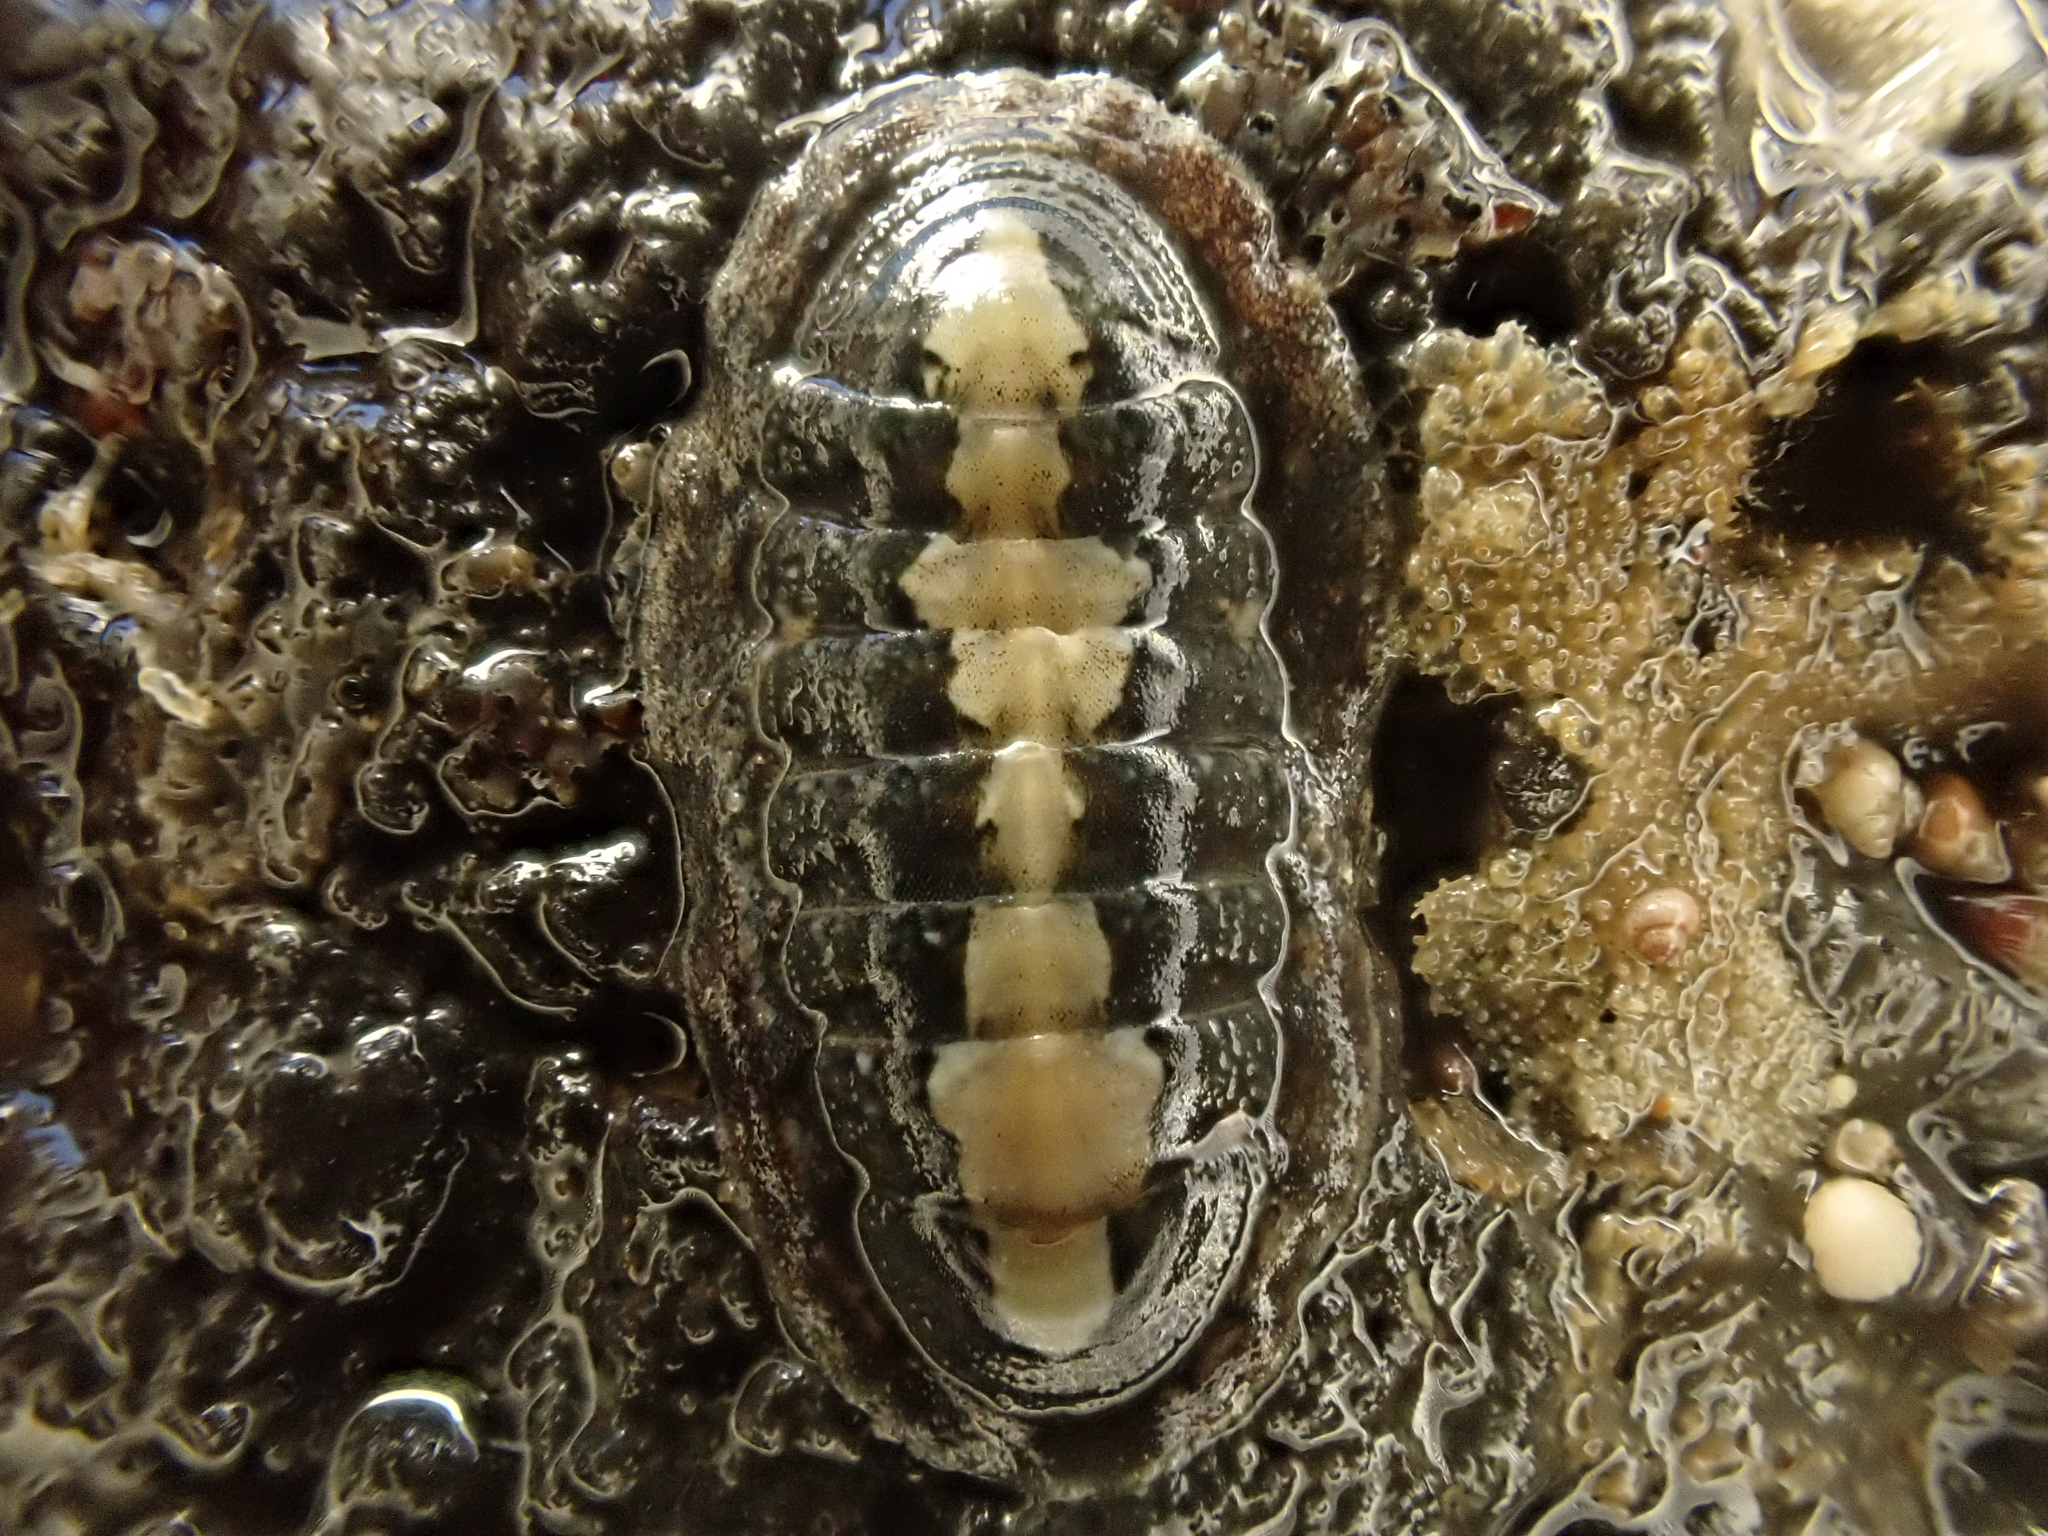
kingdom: Animalia
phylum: Mollusca
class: Polyplacophora
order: Chitonida
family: Ischnochitonidae
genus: Ischnochiton
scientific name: Ischnochiton maorianus
